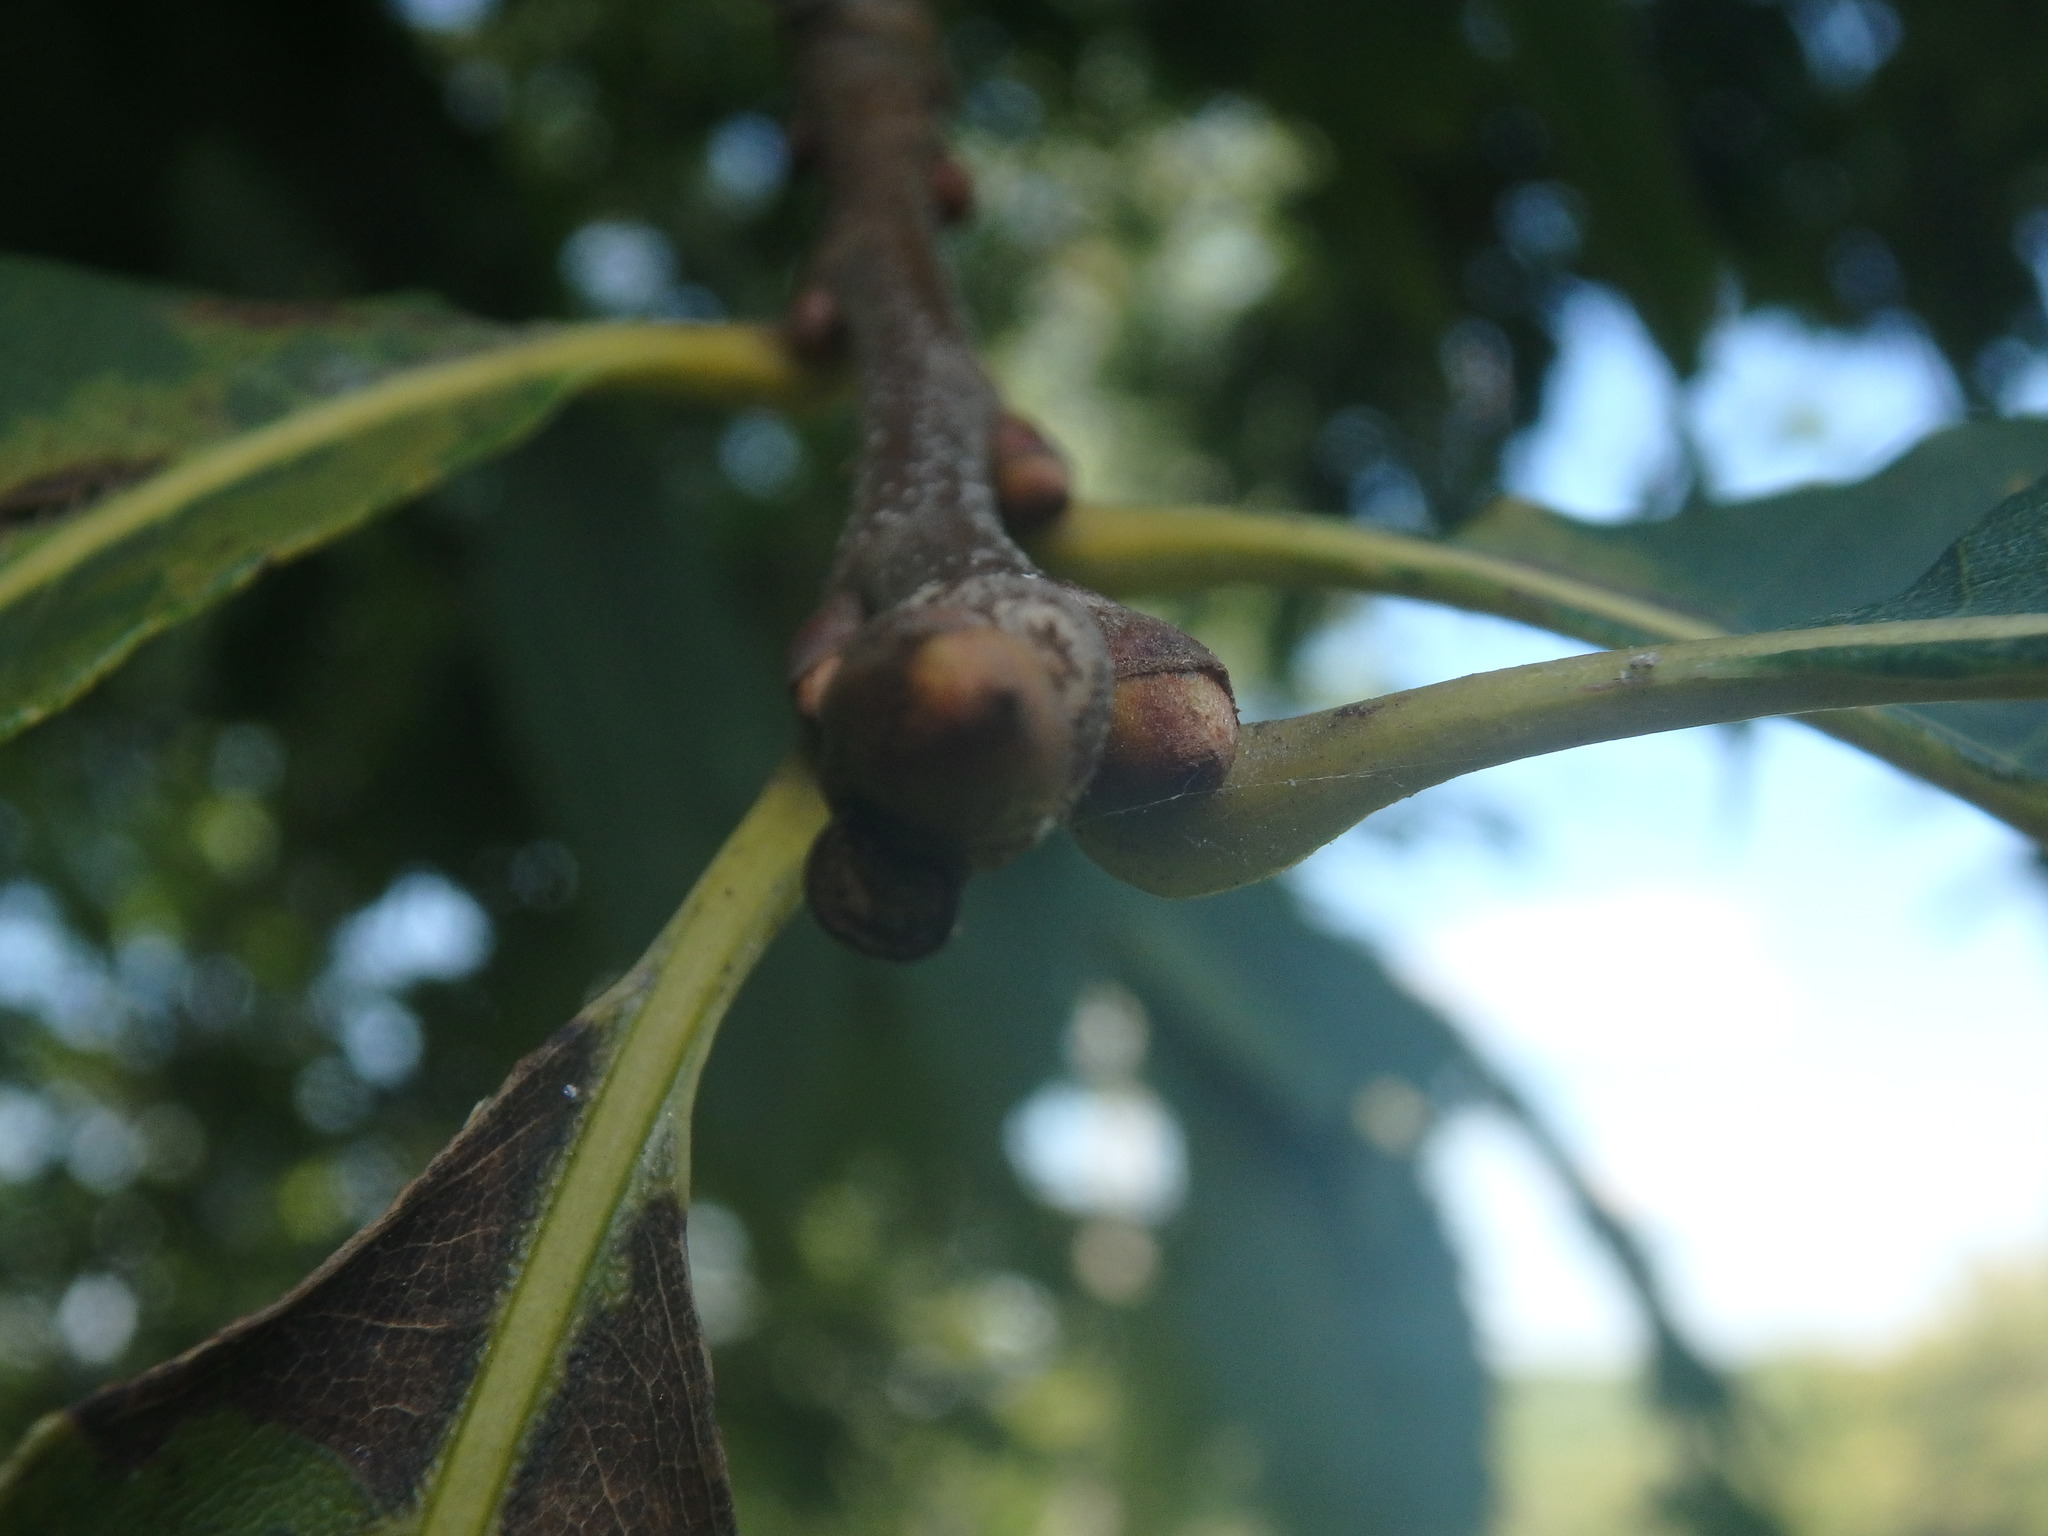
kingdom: Plantae
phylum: Tracheophyta
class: Magnoliopsida
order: Fagales
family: Fagaceae
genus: Castanea
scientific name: Castanea dentata
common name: American chestnut
